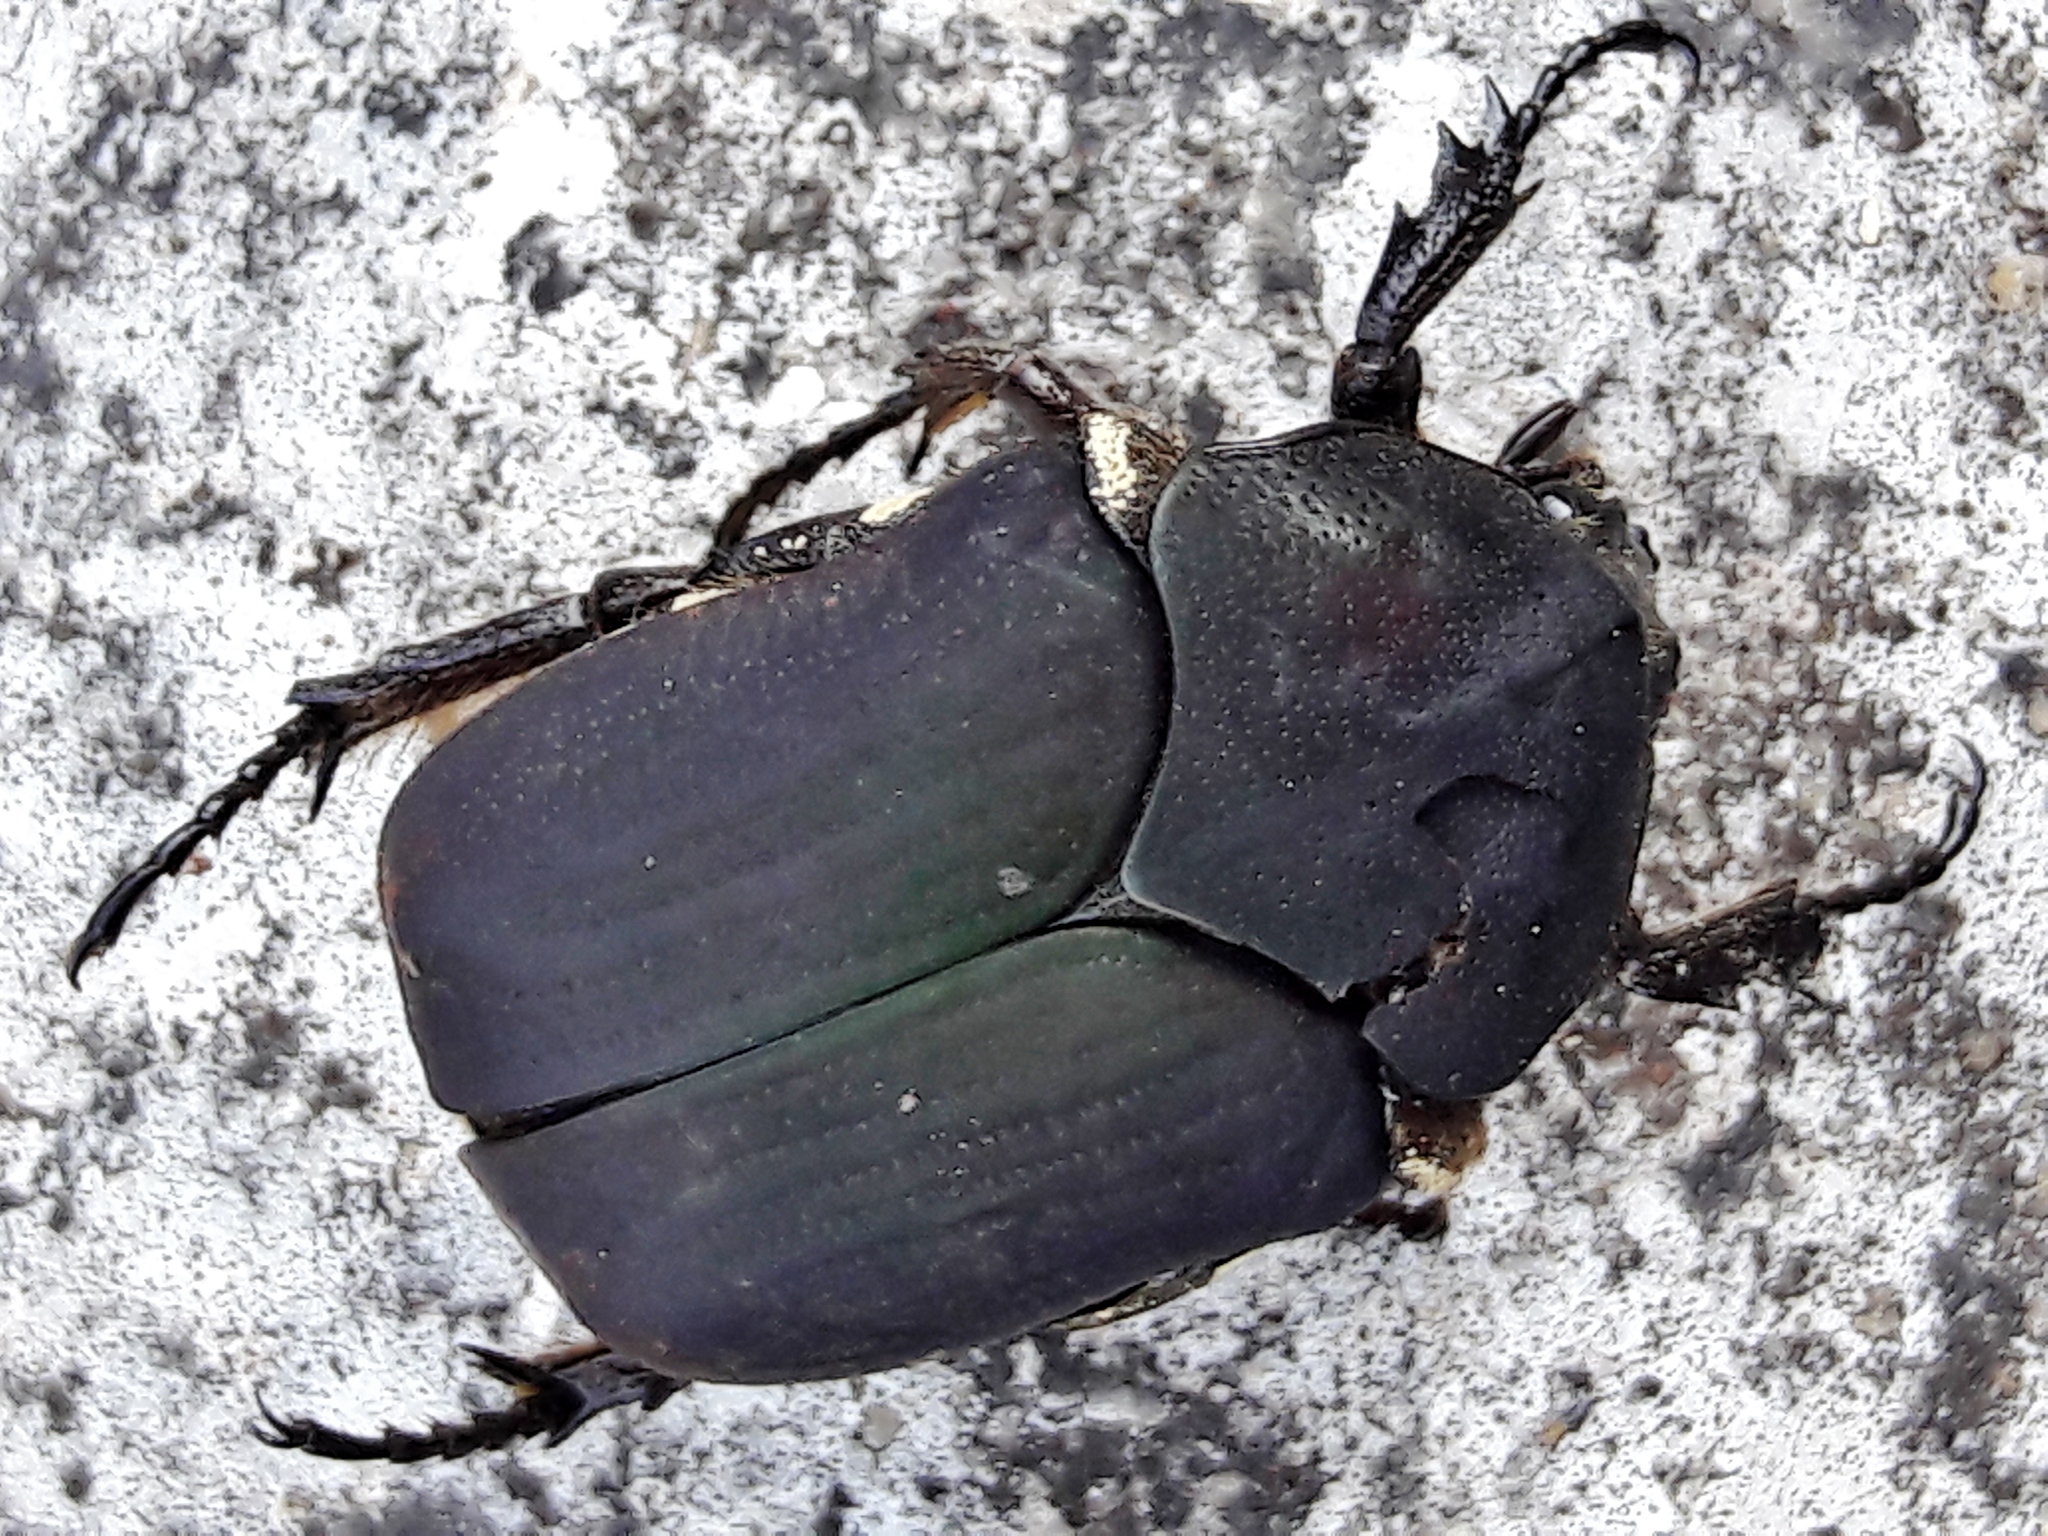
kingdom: Animalia
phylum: Arthropoda
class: Insecta
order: Coleoptera
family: Scarabaeidae
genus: Allorrhina
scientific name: Allorrhina menetriesi
